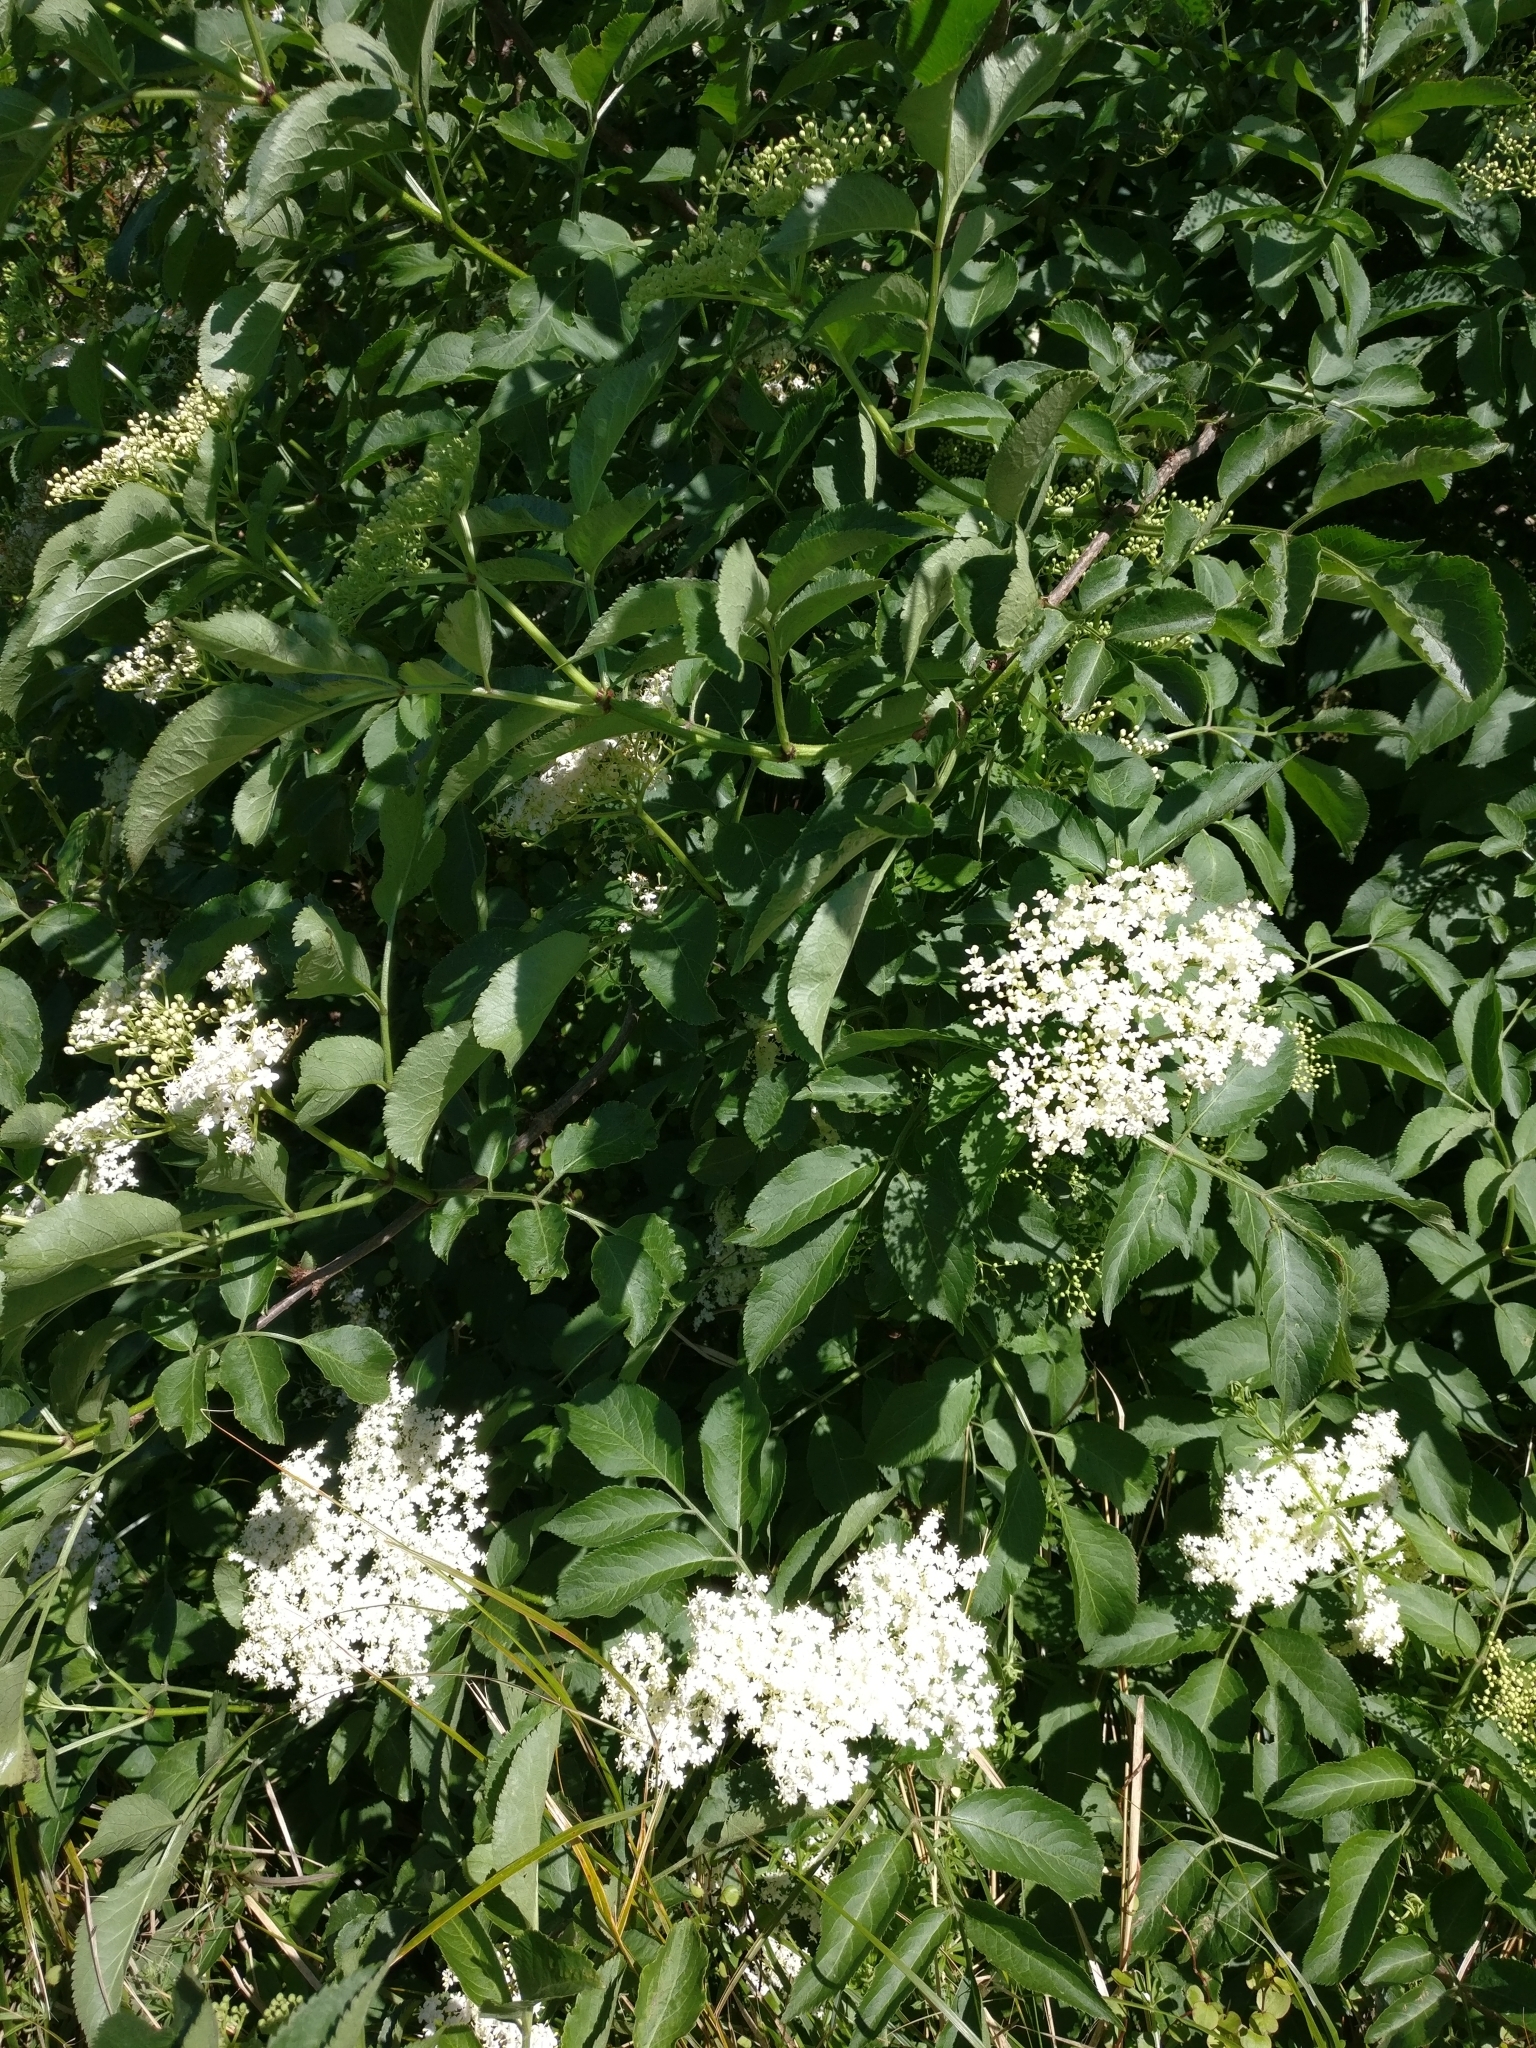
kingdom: Plantae
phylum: Tracheophyta
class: Magnoliopsida
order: Dipsacales
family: Viburnaceae
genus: Sambucus
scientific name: Sambucus nigra
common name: Elder
